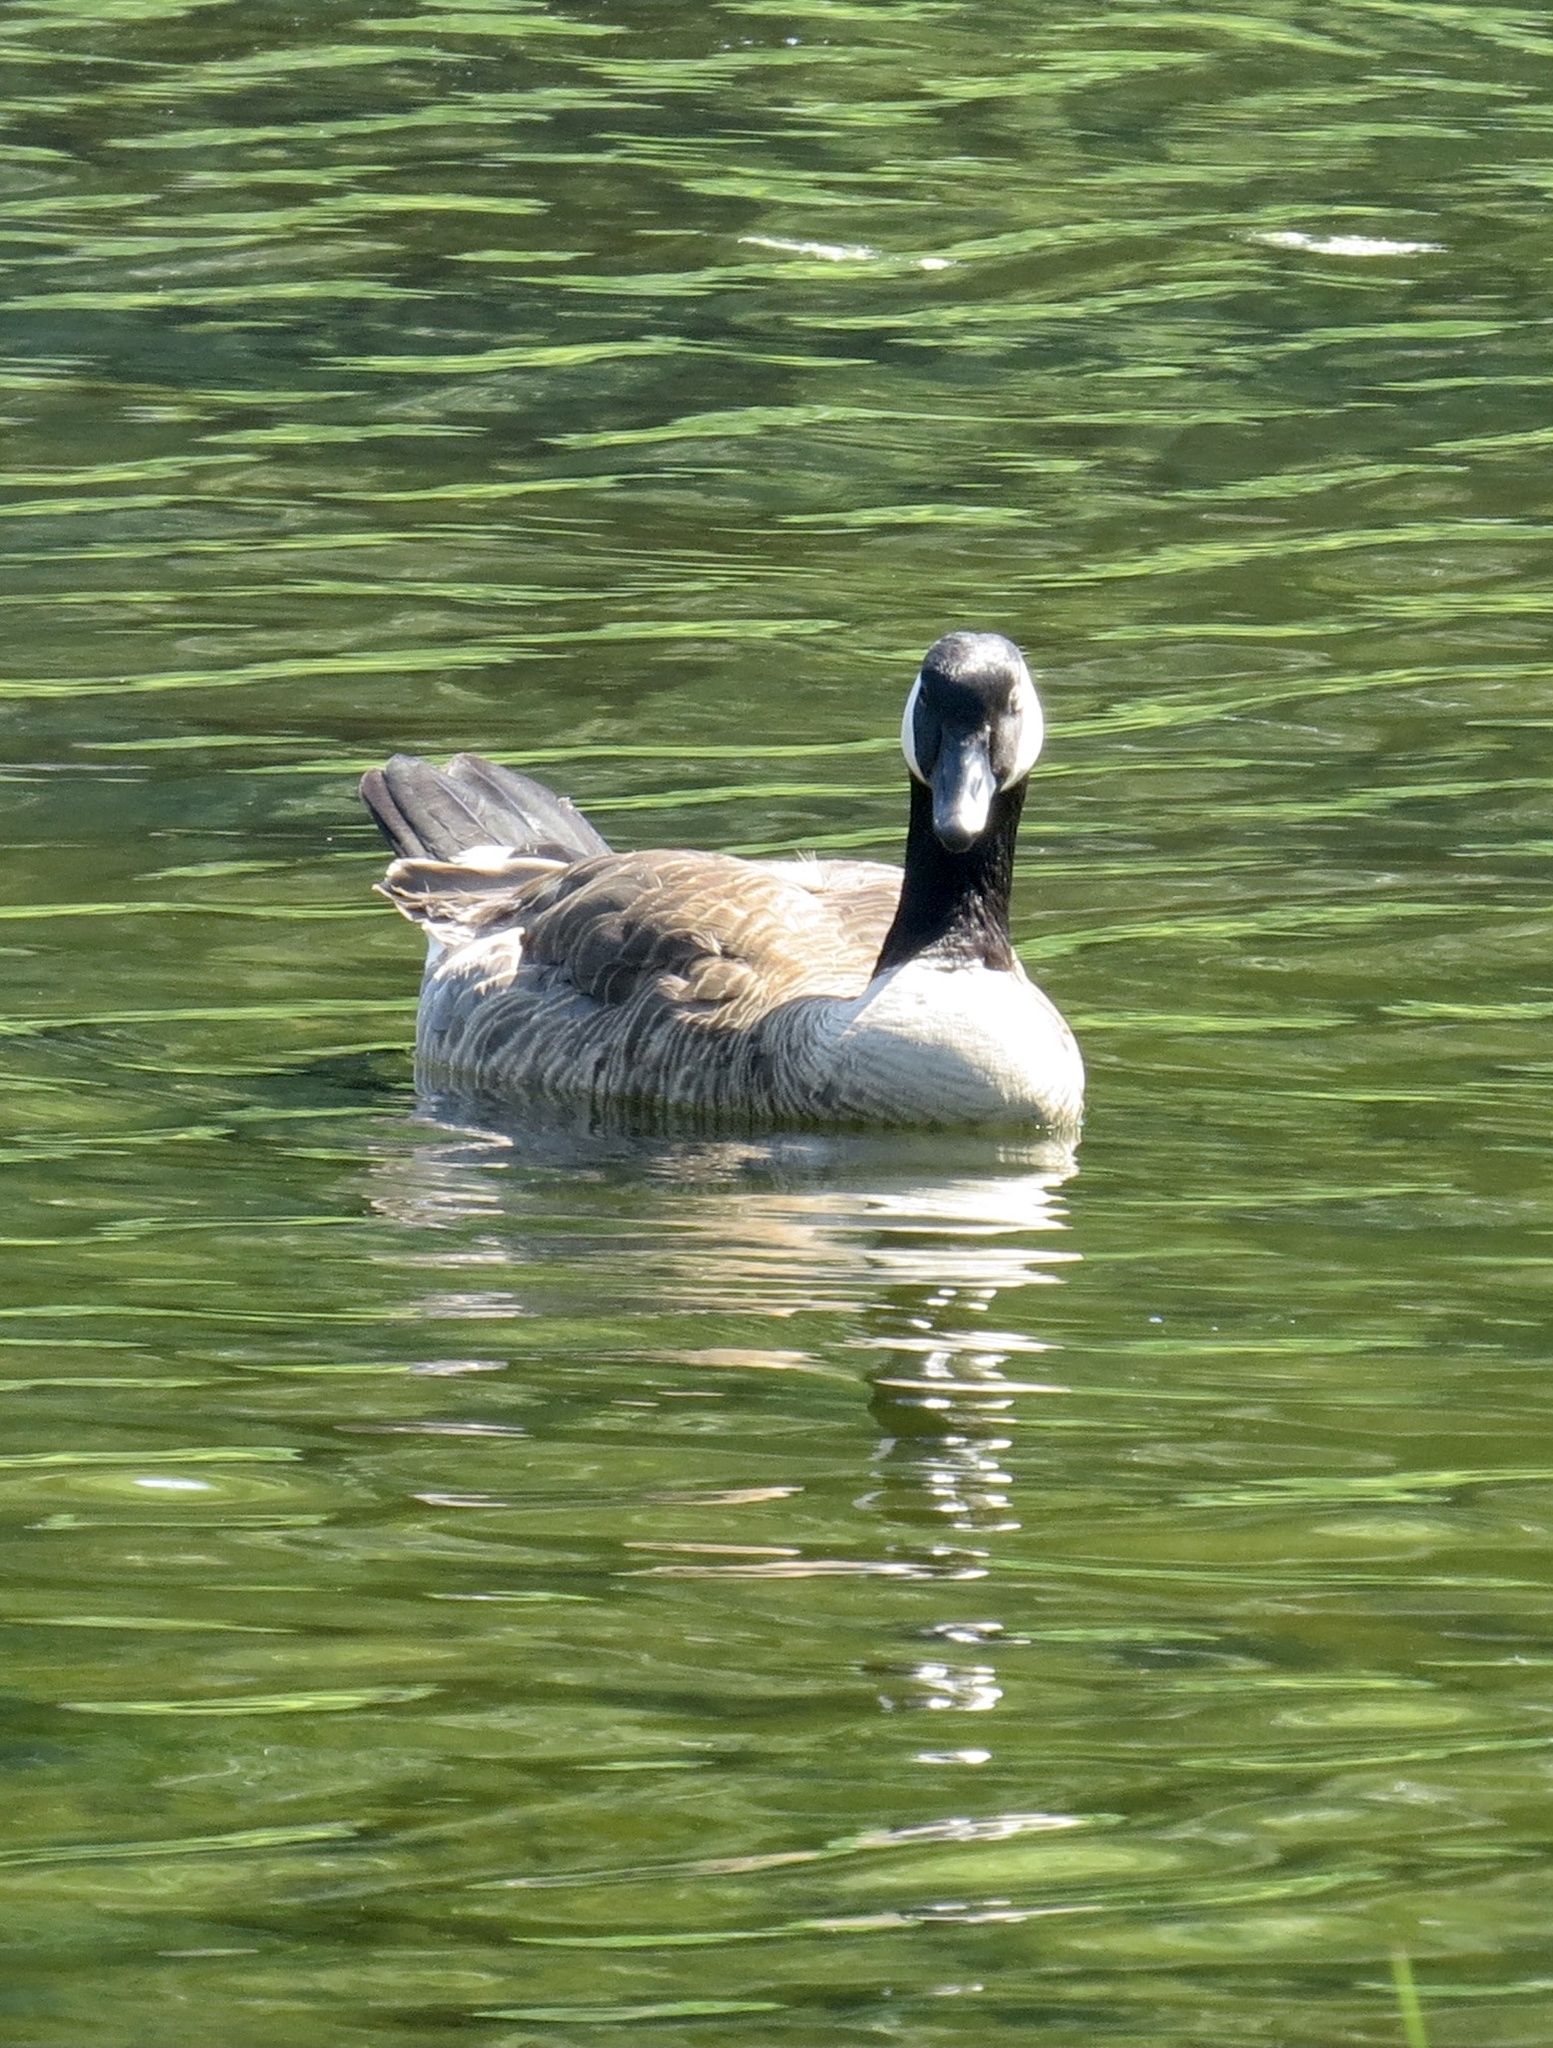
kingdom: Animalia
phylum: Chordata
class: Aves
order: Anseriformes
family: Anatidae
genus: Branta
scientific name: Branta canadensis
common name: Canada goose
